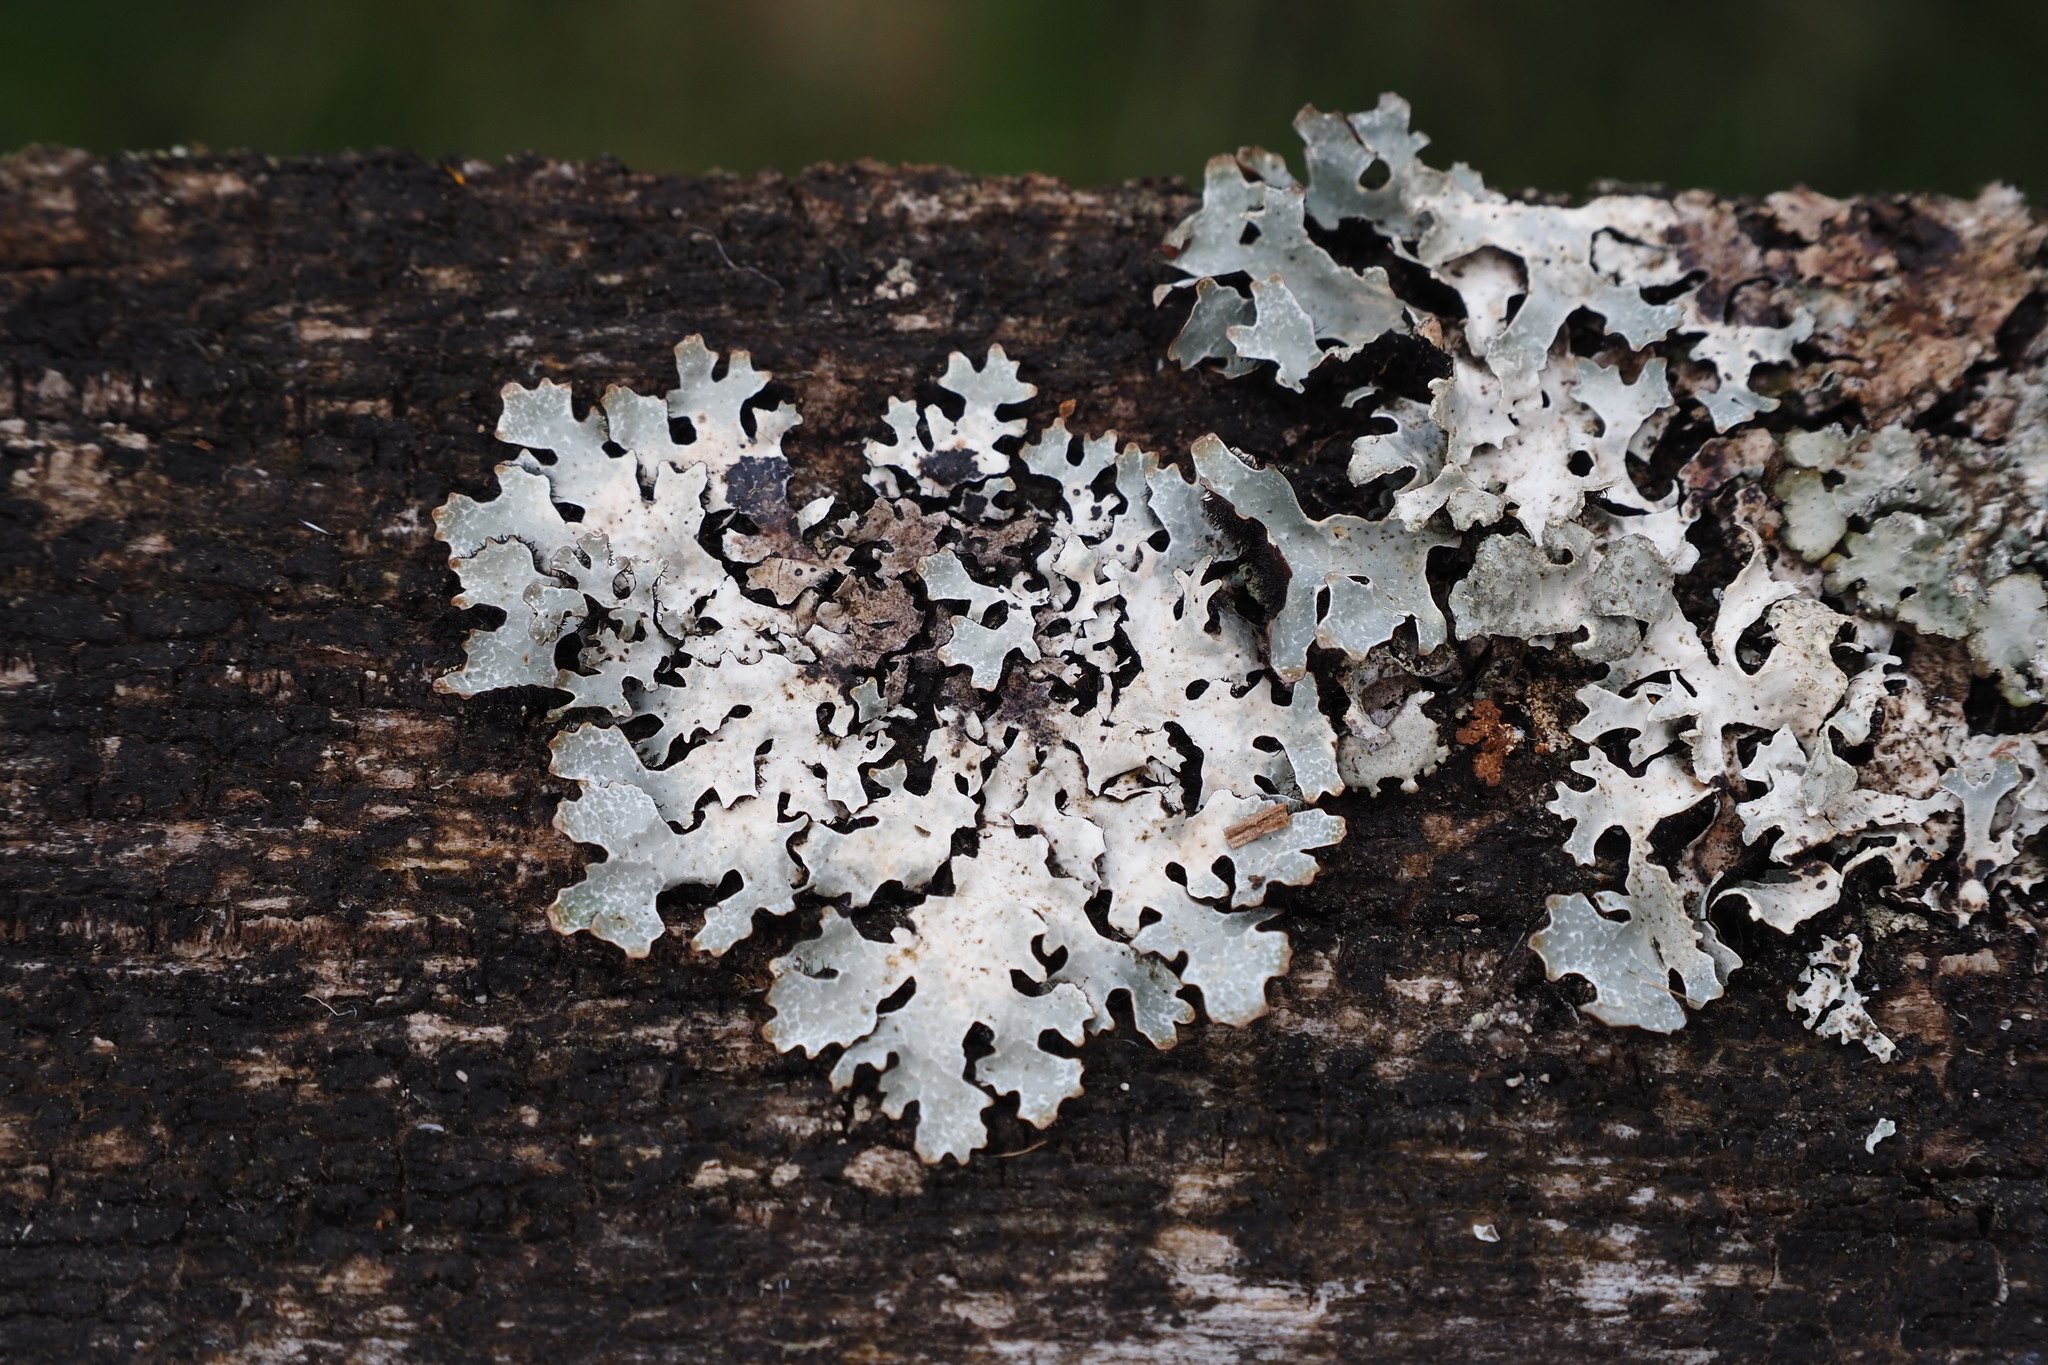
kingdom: Fungi
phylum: Ascomycota
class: Lecanoromycetes
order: Lecanorales
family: Parmeliaceae
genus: Parmelia
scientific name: Parmelia sulcata
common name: Netted shield lichen
